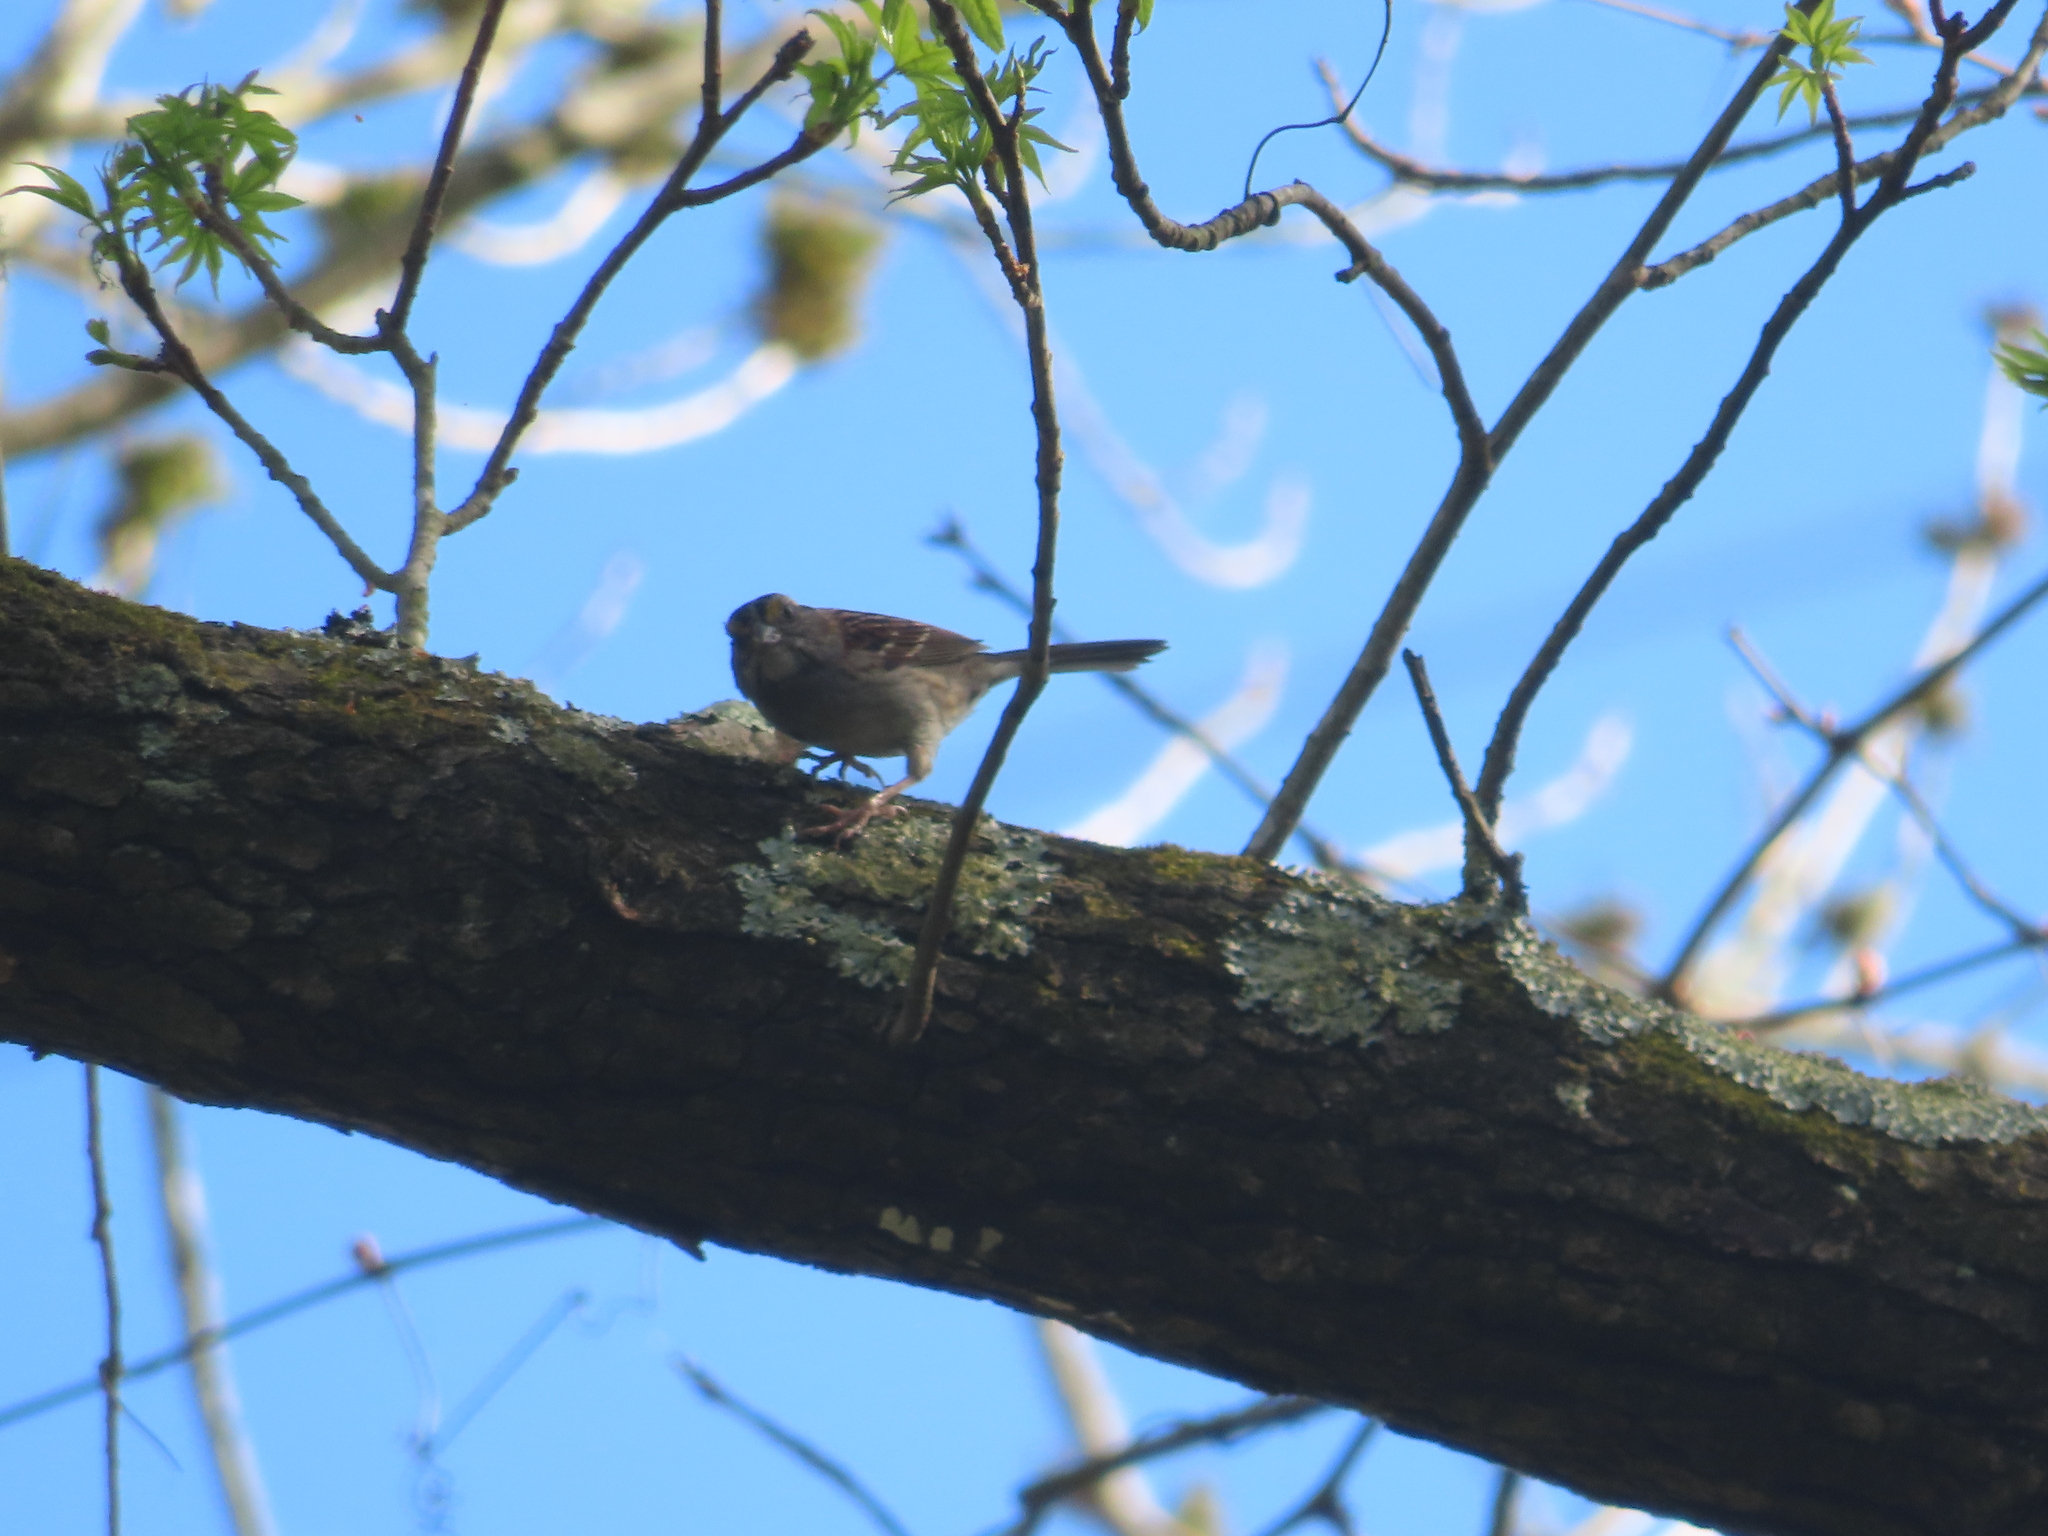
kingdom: Animalia
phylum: Chordata
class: Aves
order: Passeriformes
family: Passerellidae
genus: Zonotrichia
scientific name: Zonotrichia albicollis
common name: White-throated sparrow
